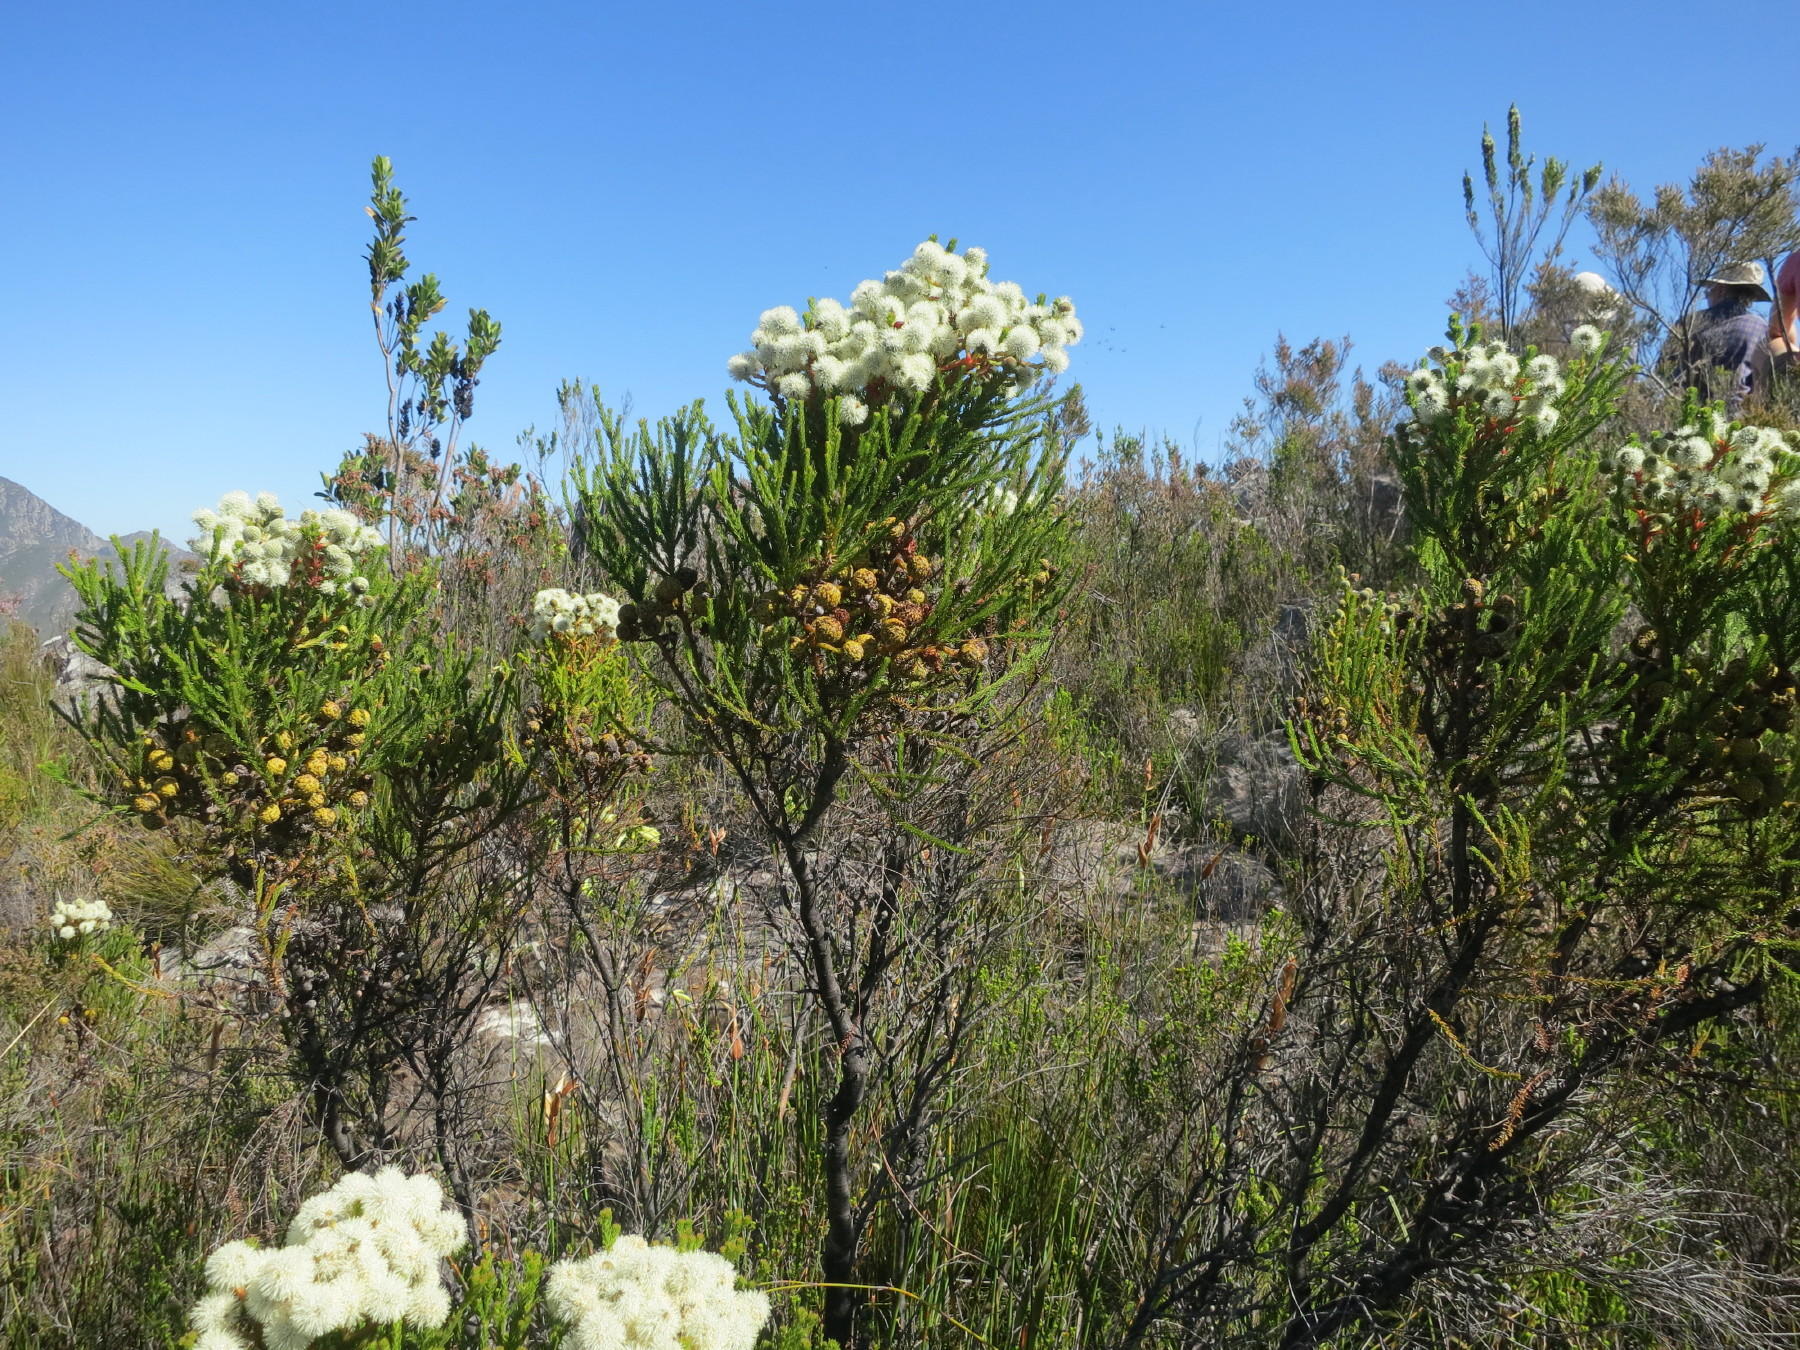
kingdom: Plantae
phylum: Tracheophyta
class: Magnoliopsida
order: Bruniales
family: Bruniaceae
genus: Berzelia
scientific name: Berzelia intermedia
